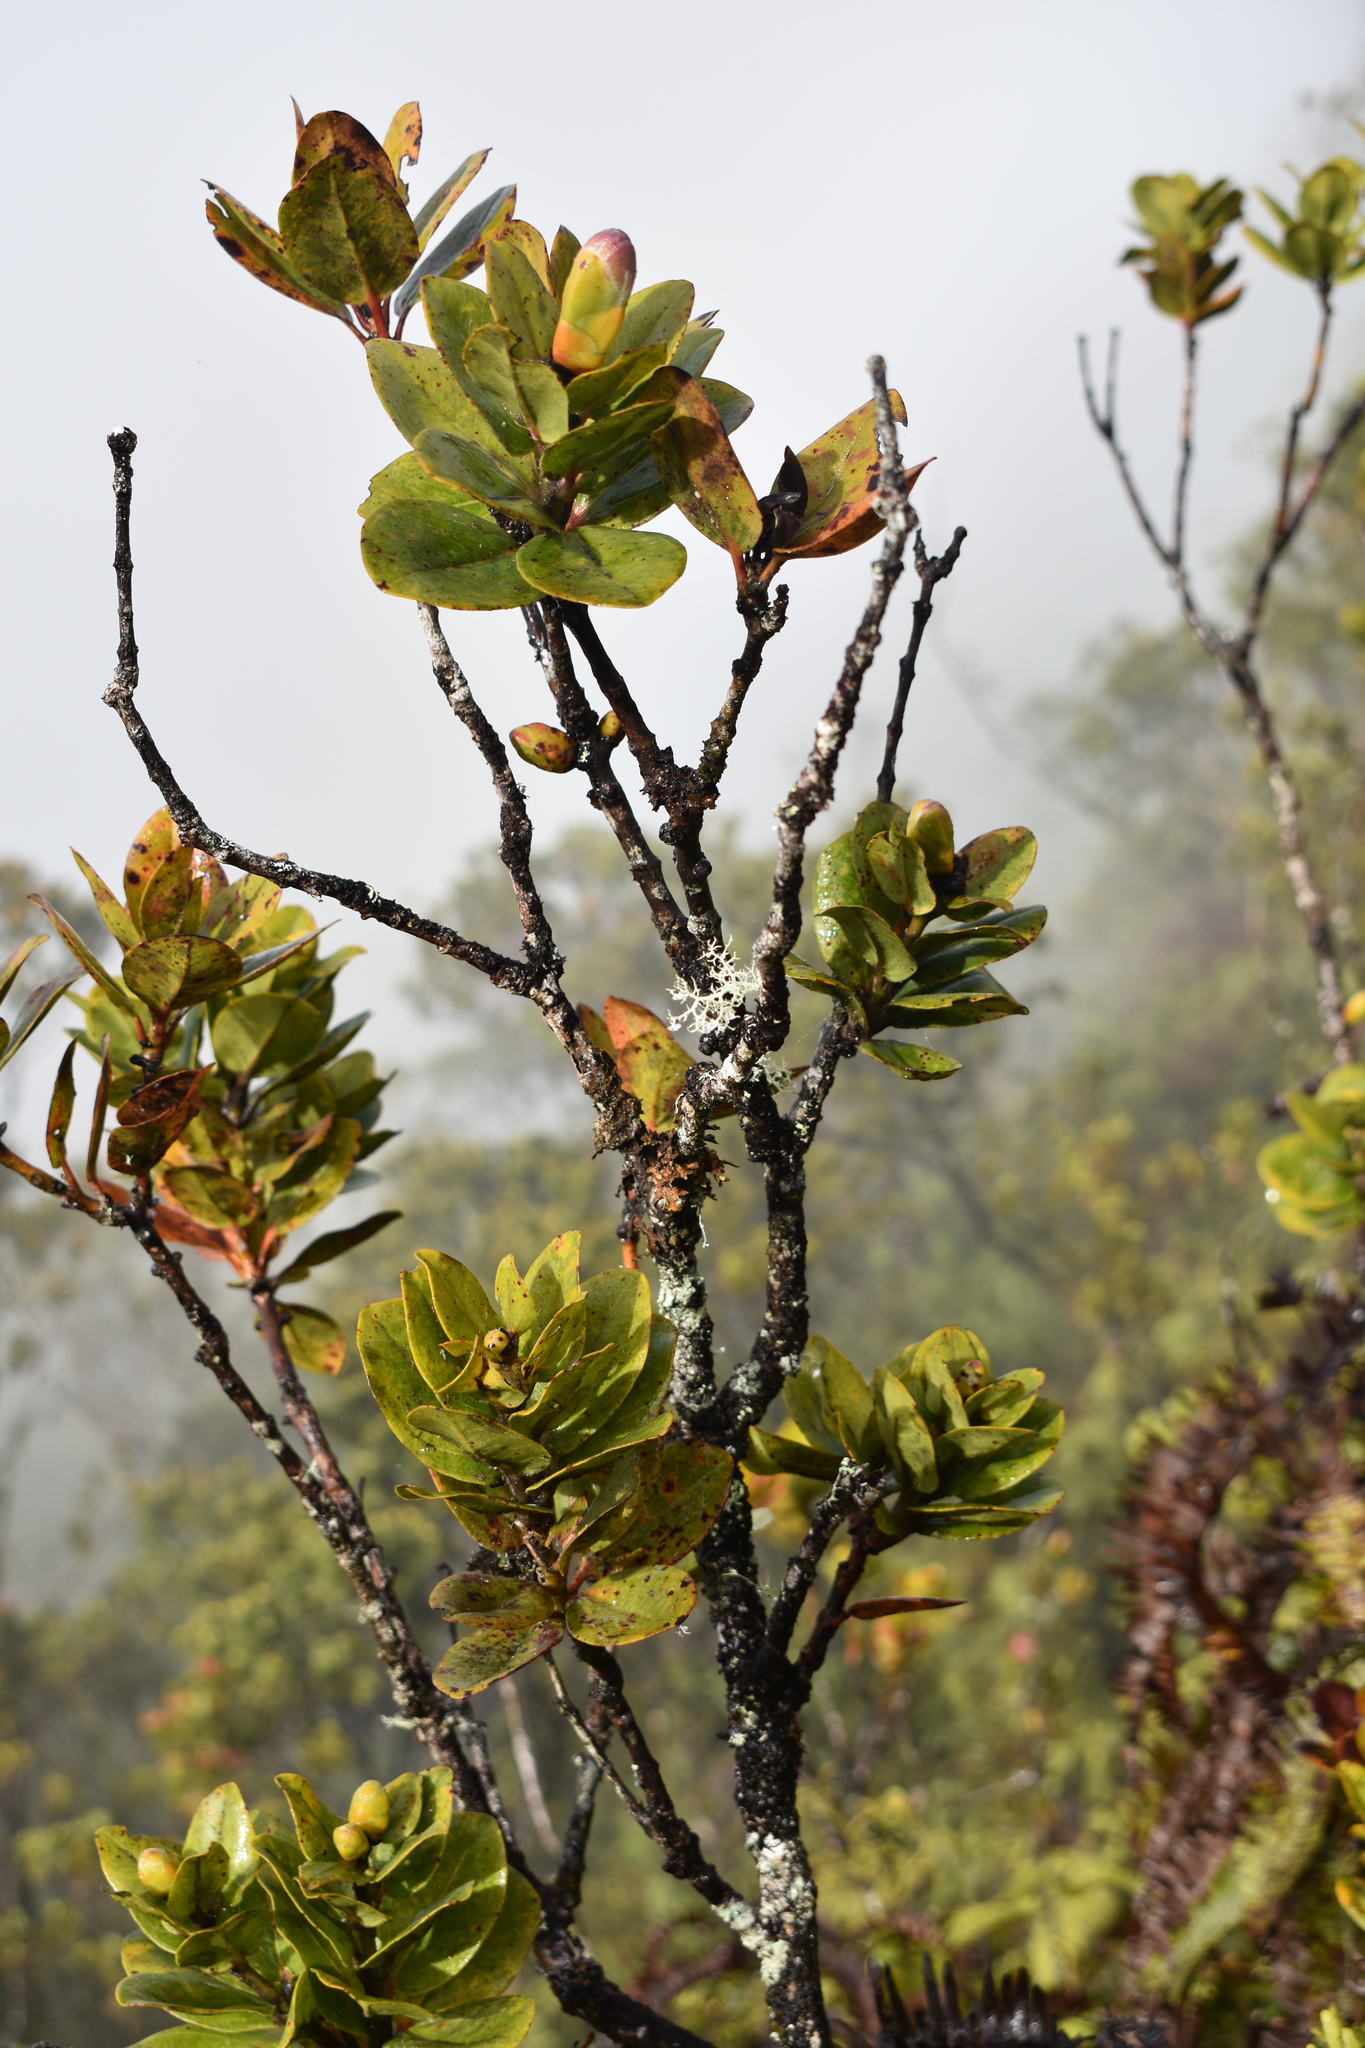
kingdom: Plantae
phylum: Tracheophyta
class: Magnoliopsida
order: Myrtales
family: Myrtaceae
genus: Metrosideros
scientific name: Metrosideros polymorpha
